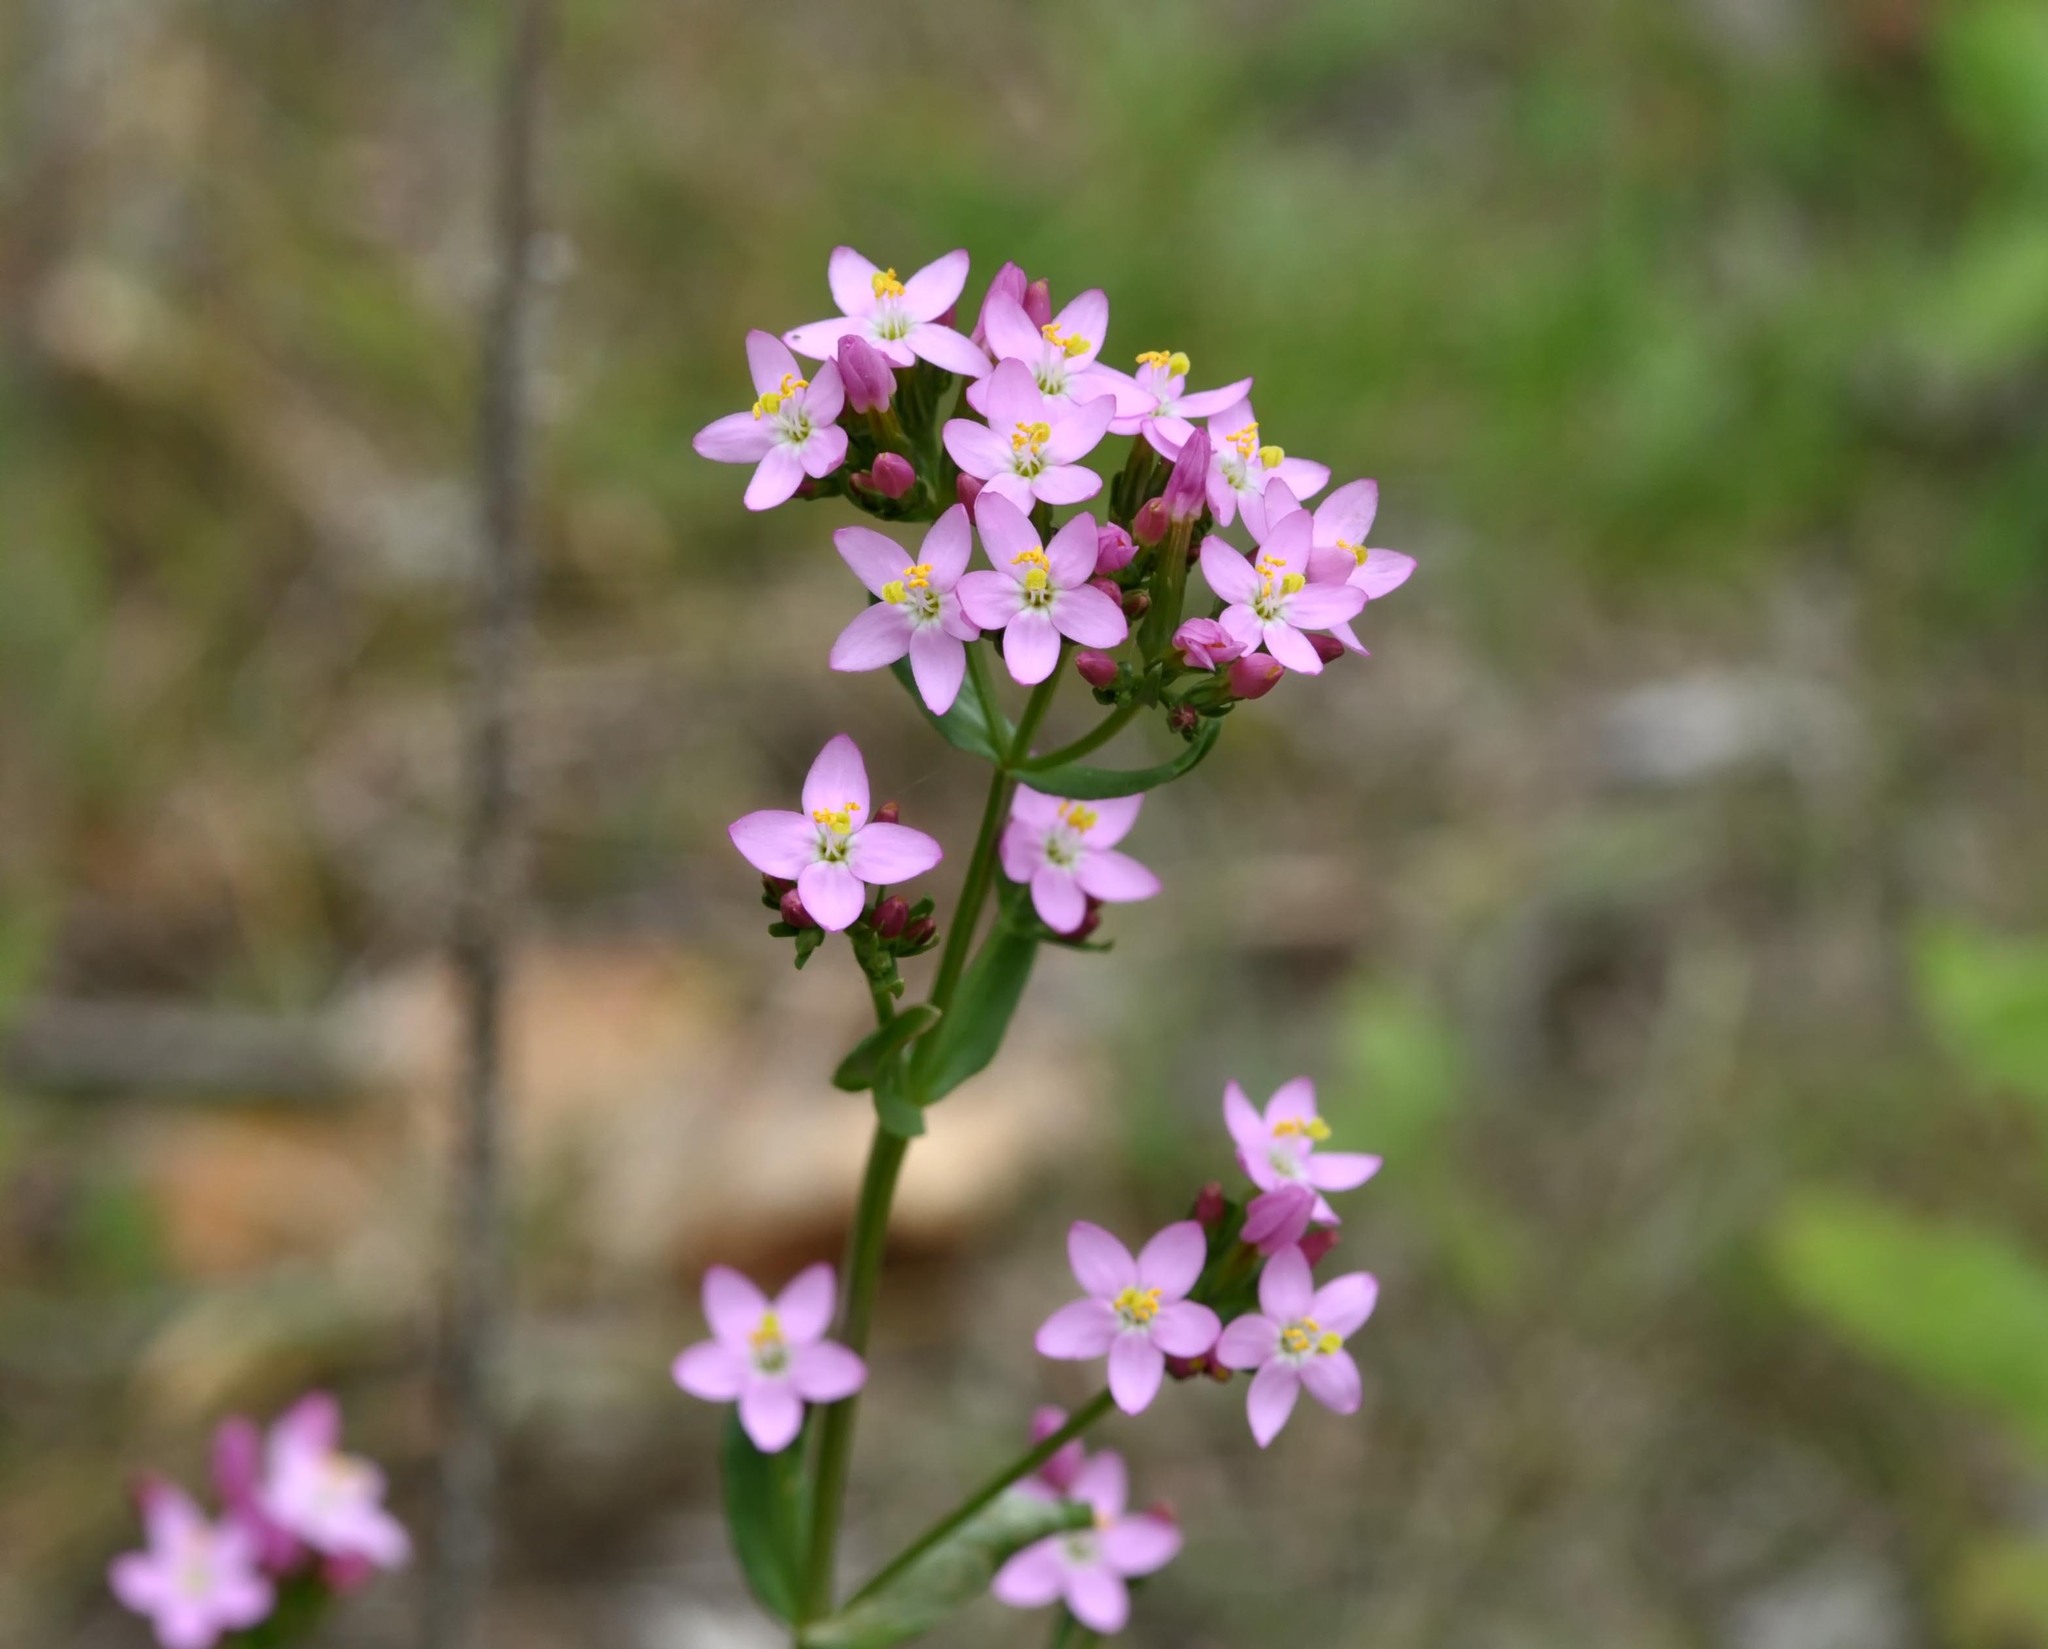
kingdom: Plantae
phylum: Tracheophyta
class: Magnoliopsida
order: Gentianales
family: Gentianaceae
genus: Centaurium
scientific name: Centaurium erythraea
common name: Common centaury
